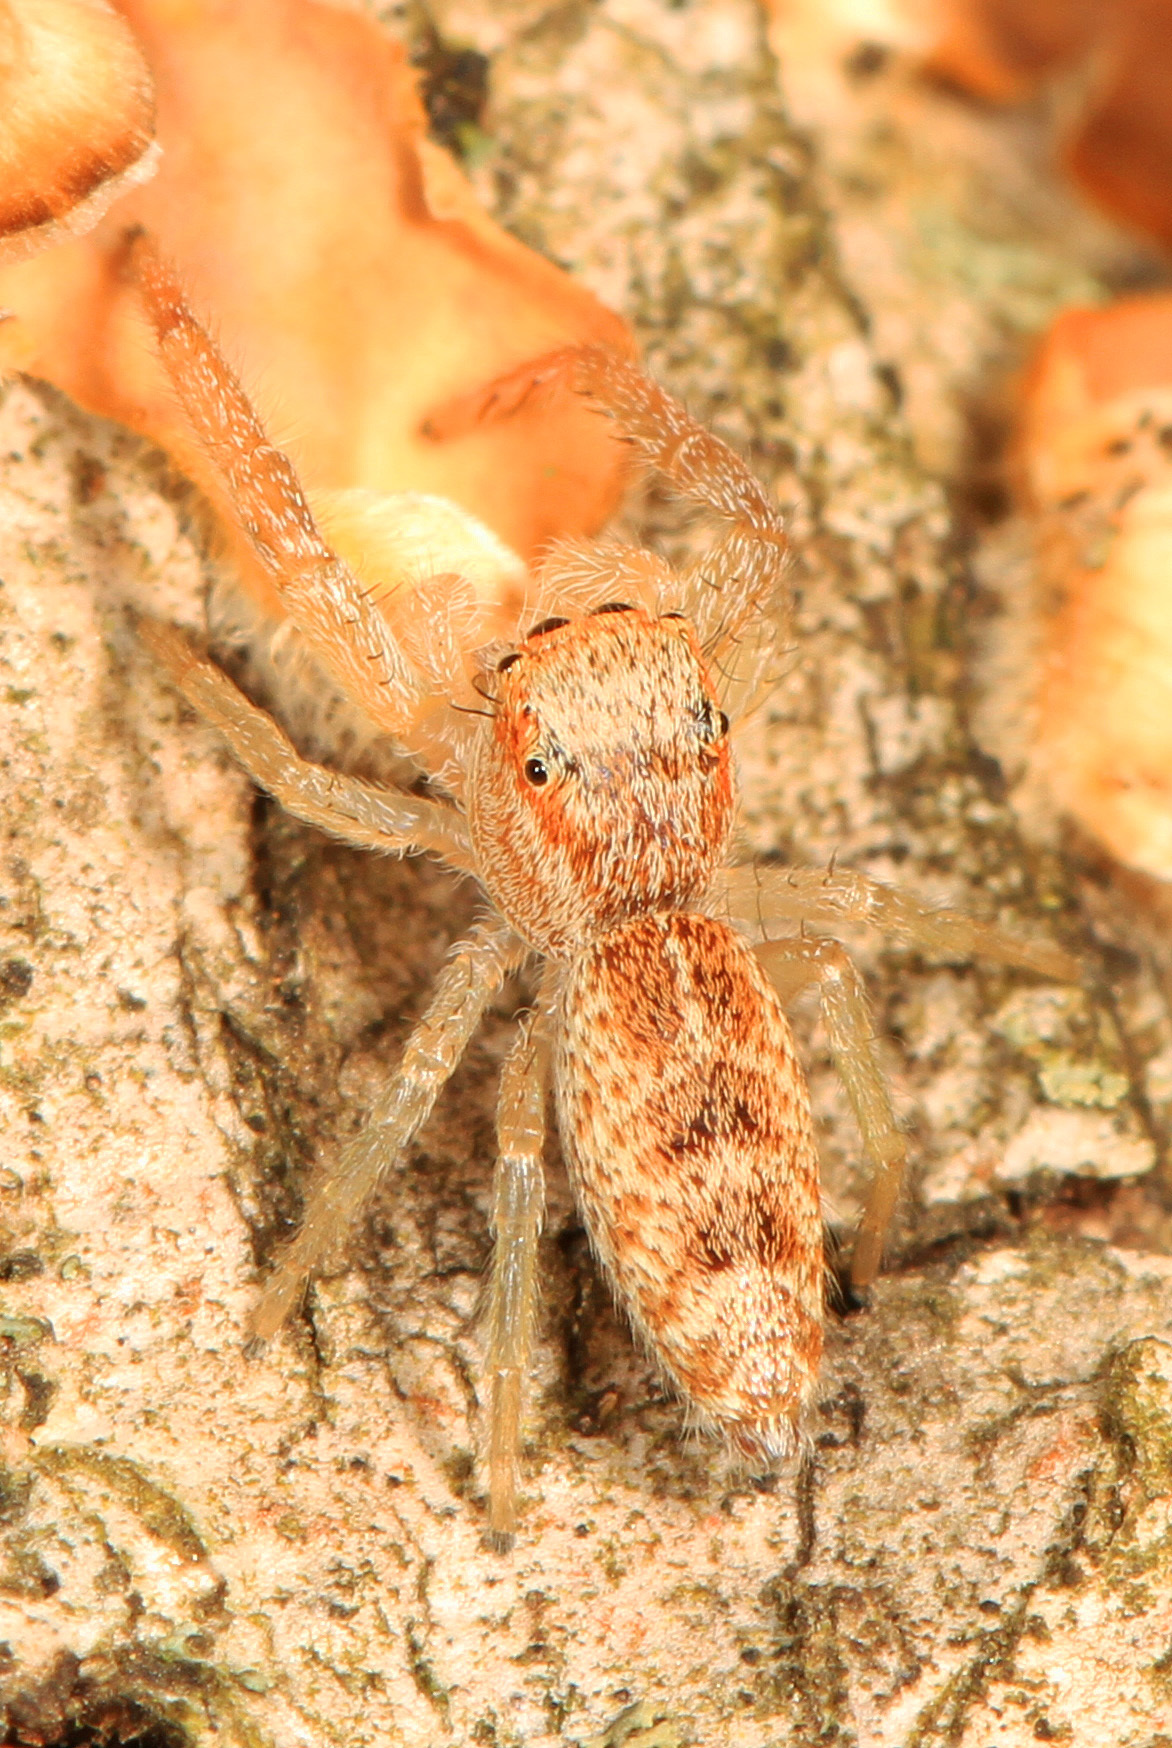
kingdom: Animalia
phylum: Arthropoda
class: Arachnida
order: Araneae
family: Salticidae
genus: Hentzia
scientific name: Hentzia mitrata
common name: White-jawed jumping spider
